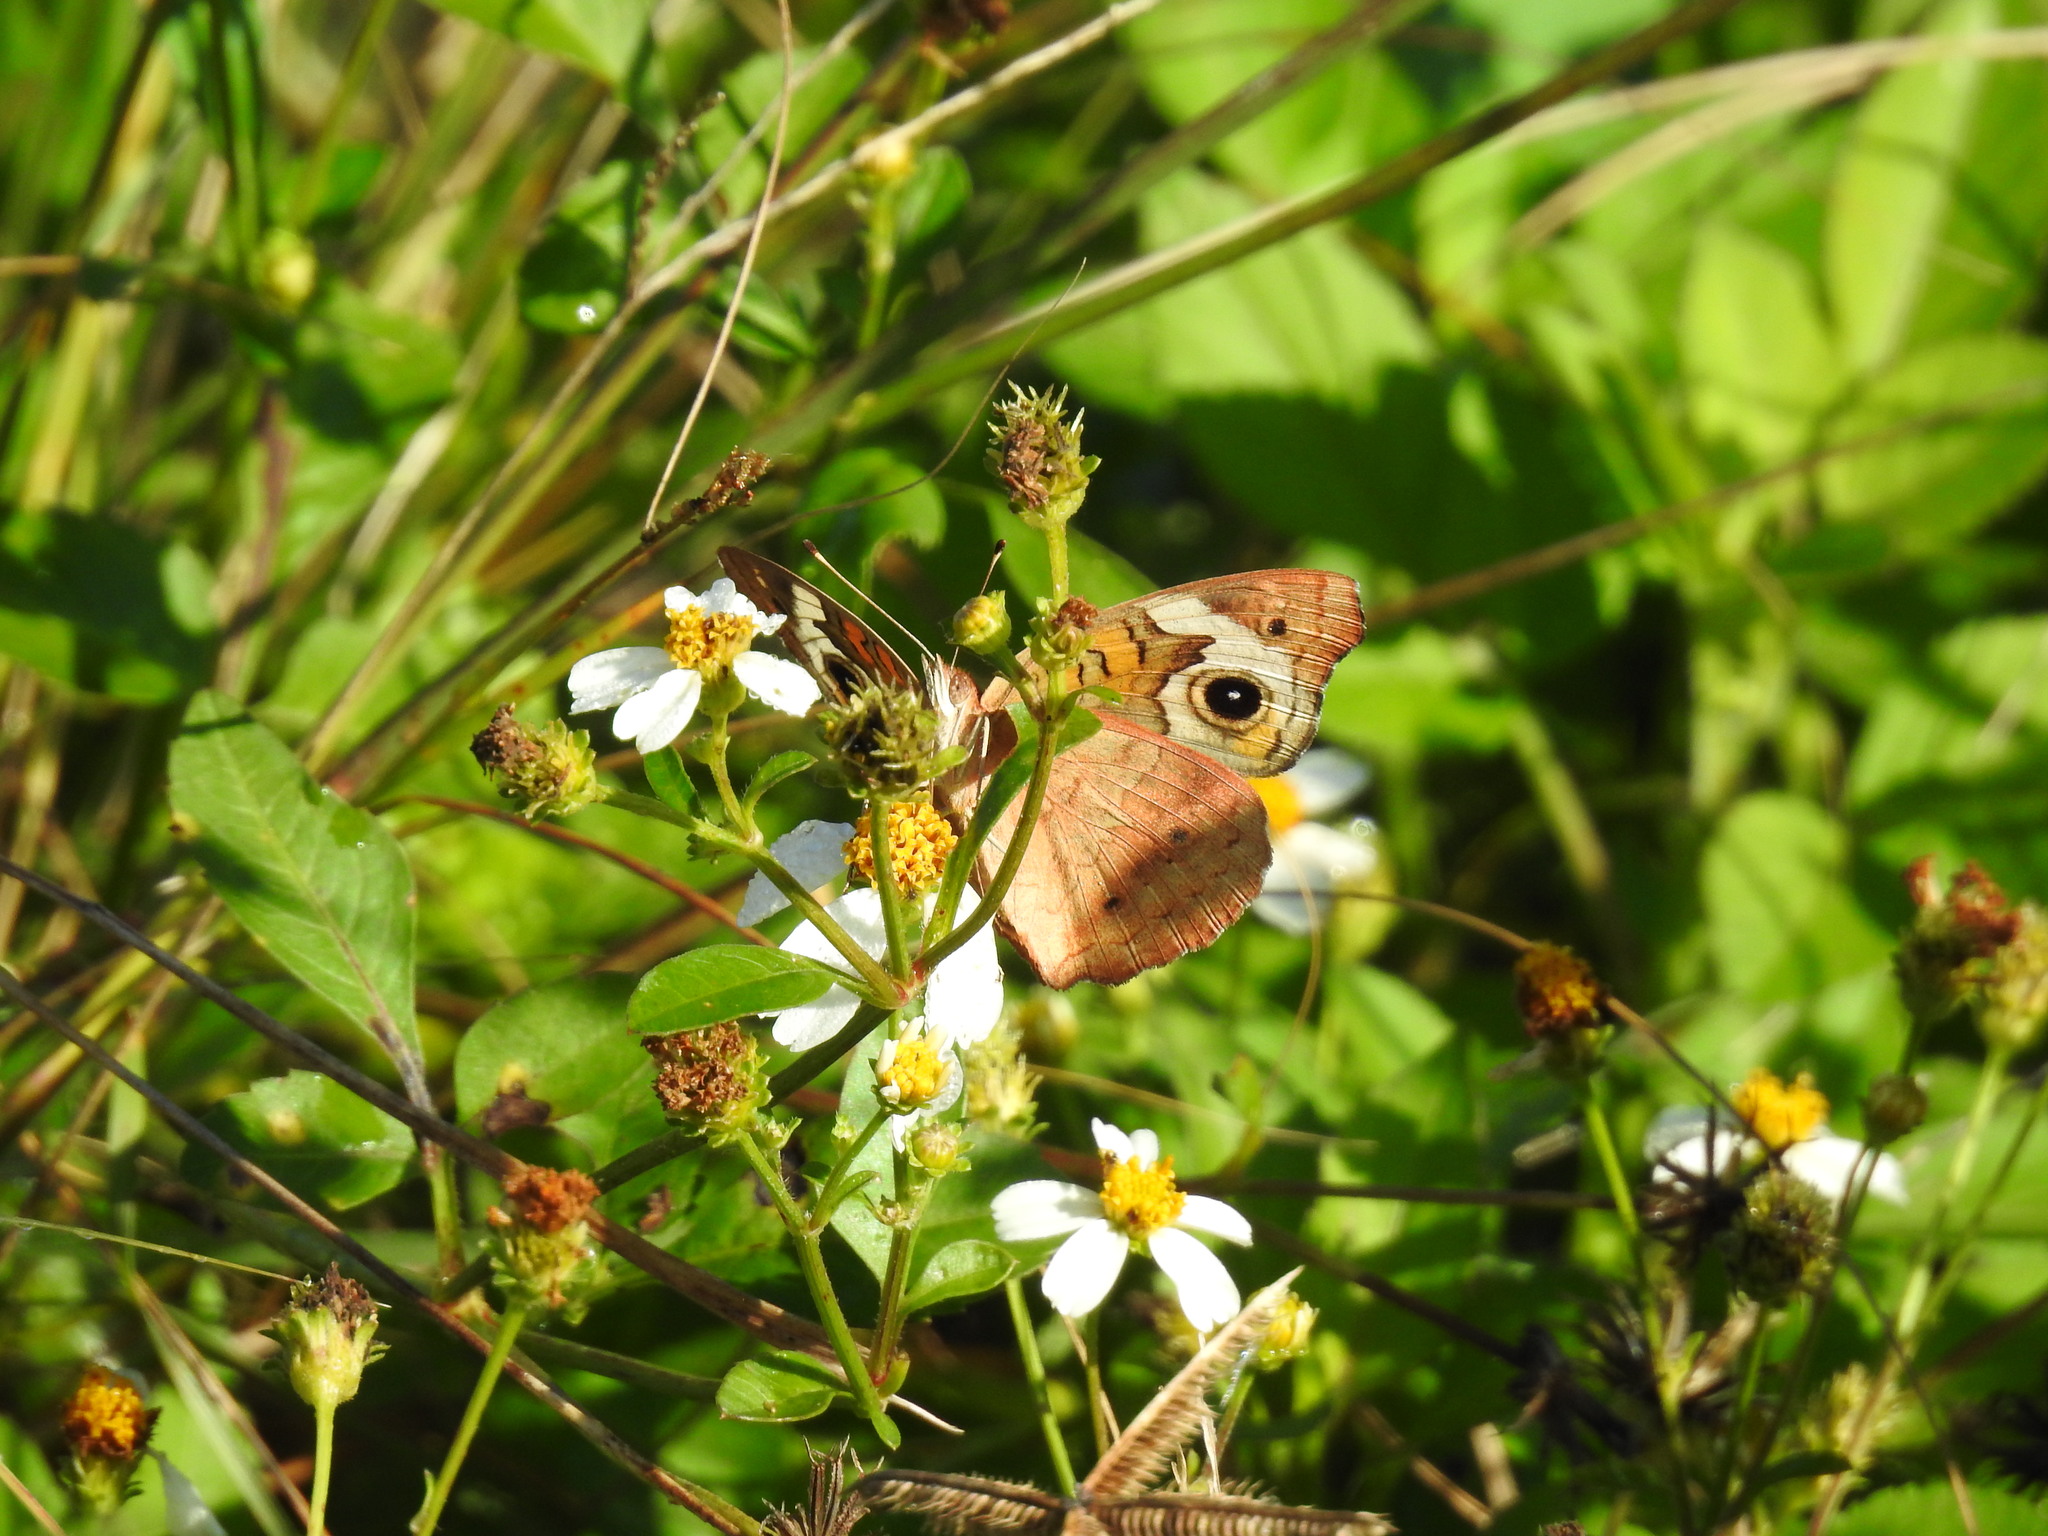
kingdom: Animalia
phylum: Arthropoda
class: Insecta
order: Lepidoptera
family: Nymphalidae
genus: Junonia
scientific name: Junonia coenia
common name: Common buckeye
